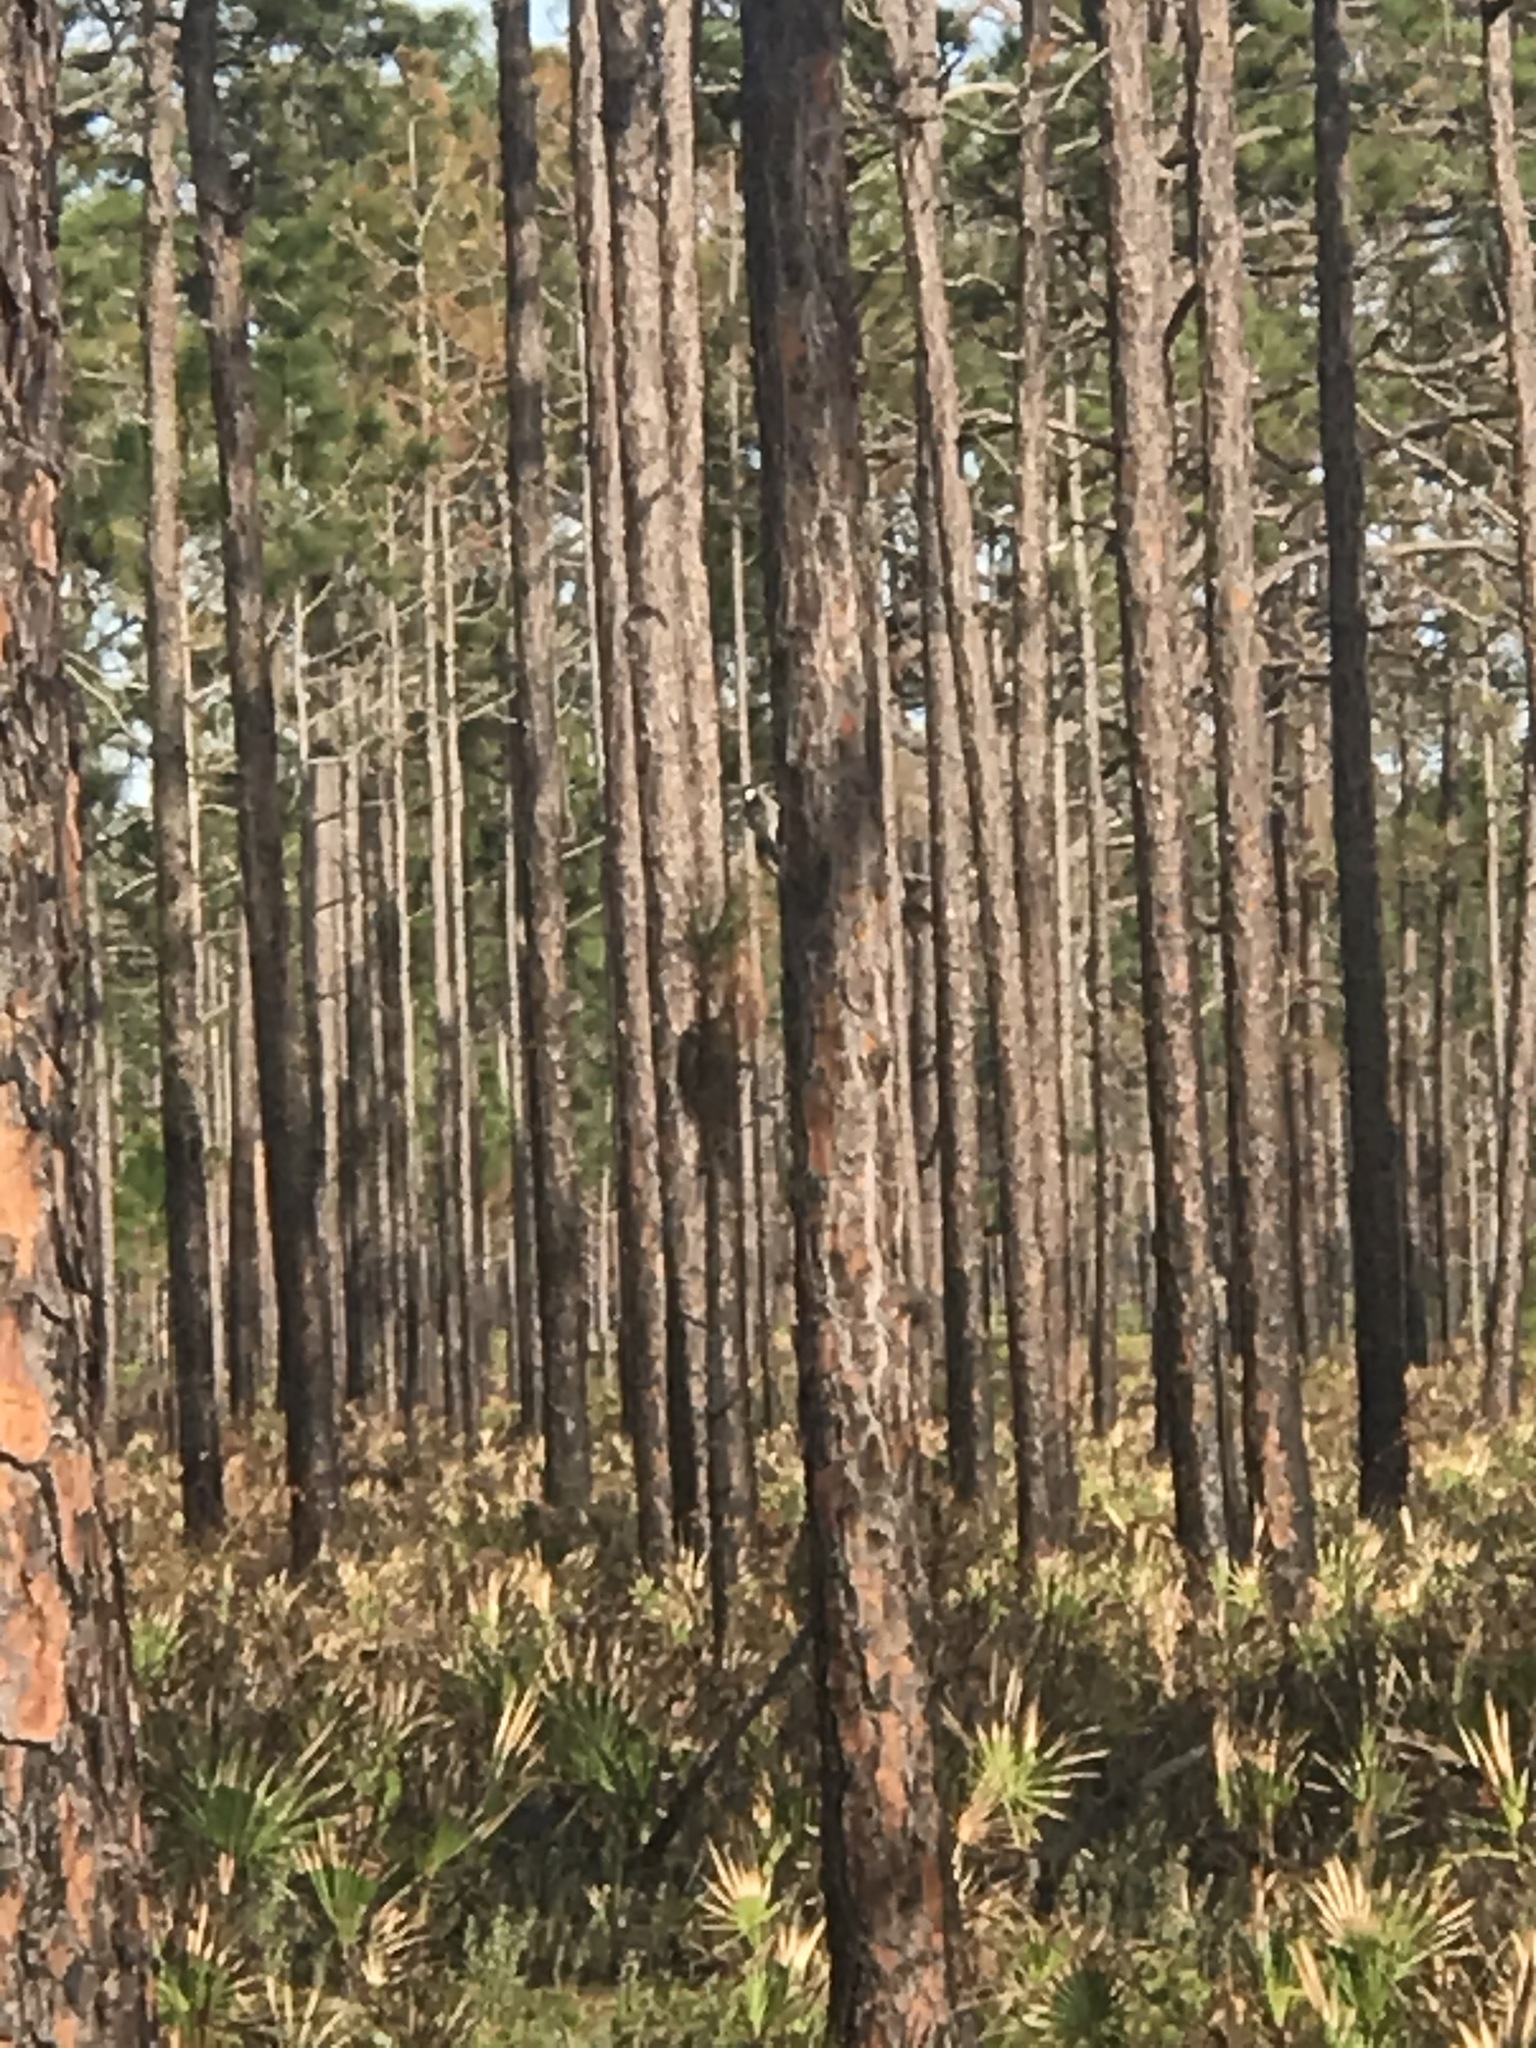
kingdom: Animalia
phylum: Chordata
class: Aves
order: Piciformes
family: Picidae
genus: Leuconotopicus
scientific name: Leuconotopicus borealis
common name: Red-cockaded woodpecker
